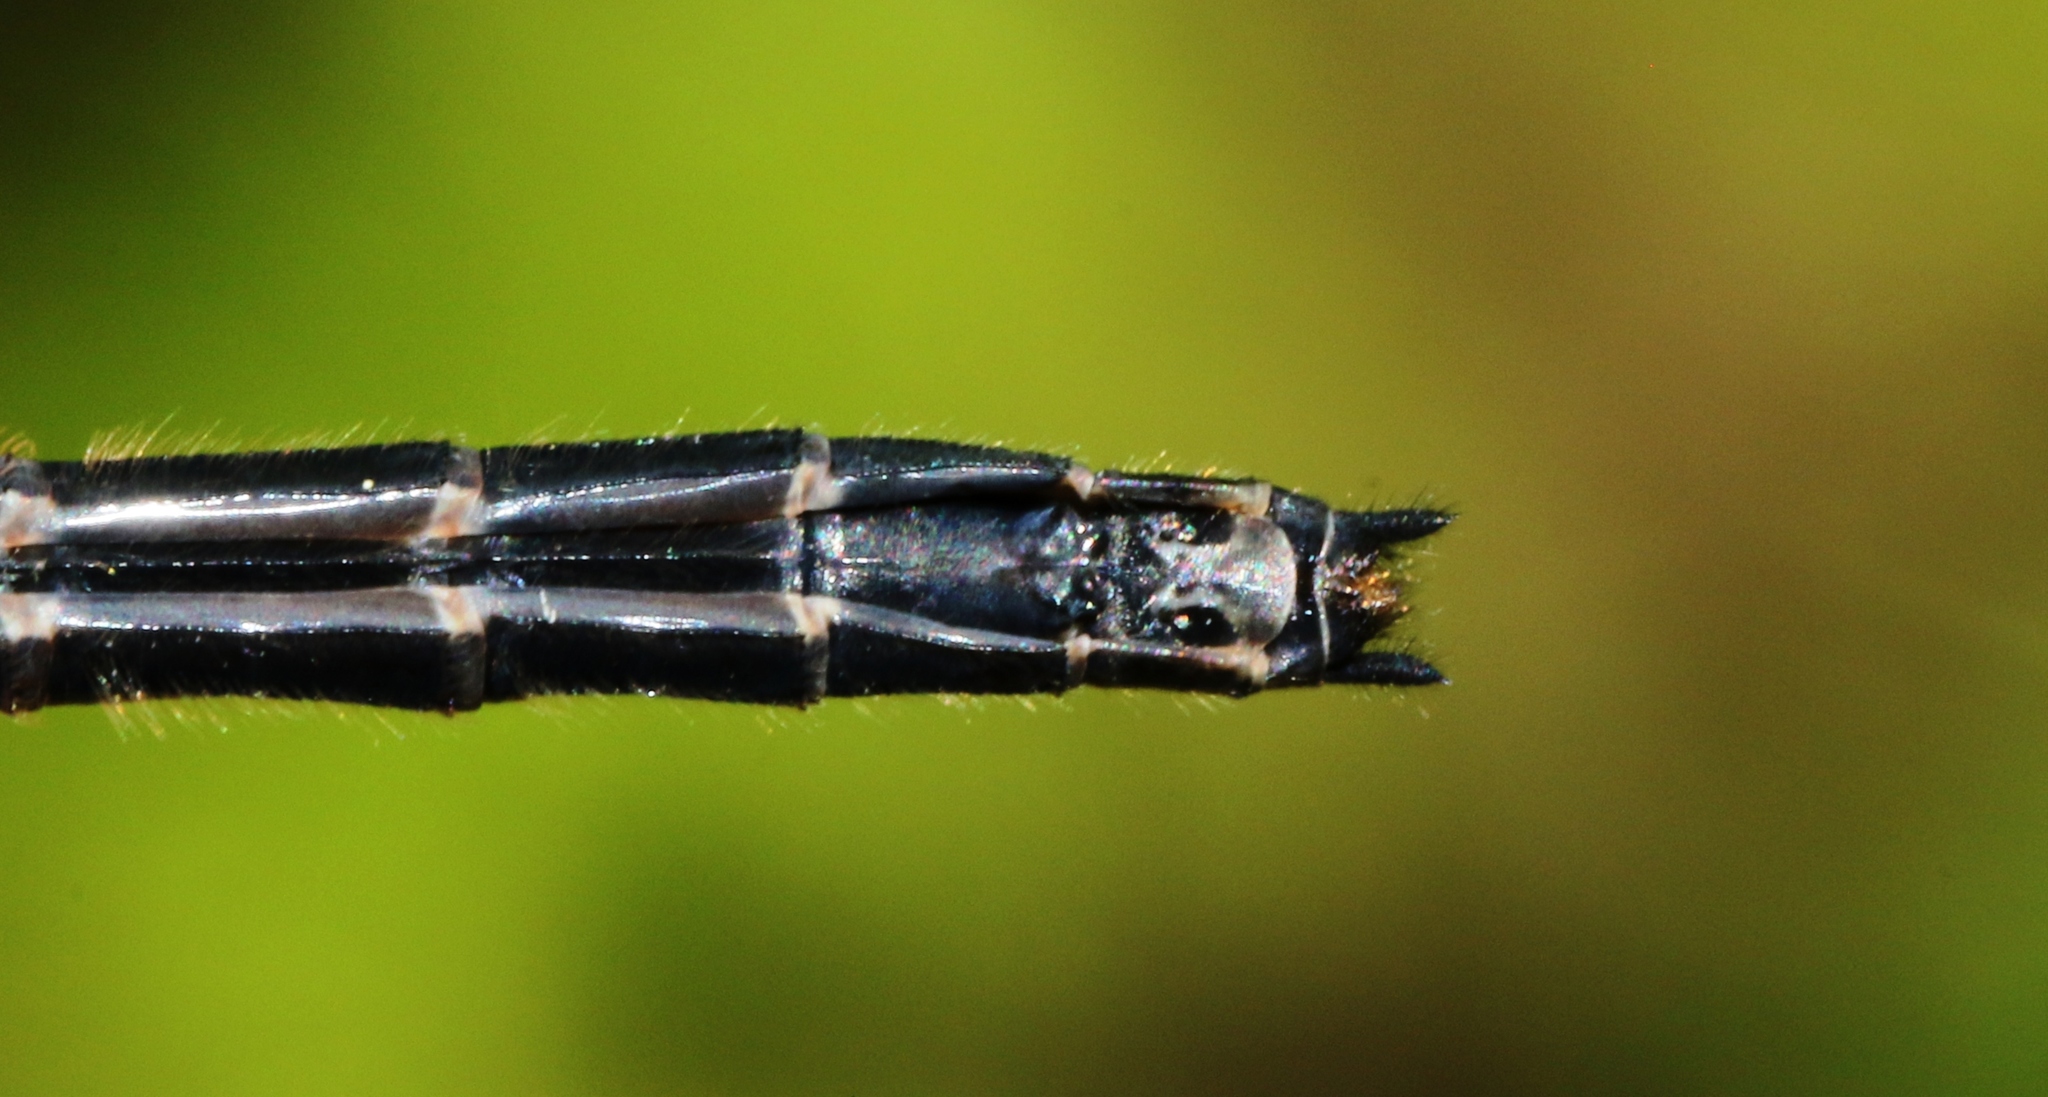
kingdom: Animalia
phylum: Arthropoda
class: Insecta
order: Odonata
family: Libellulidae
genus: Leucorrhinia
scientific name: Leucorrhinia intacta
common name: Dot-tailed whiteface
